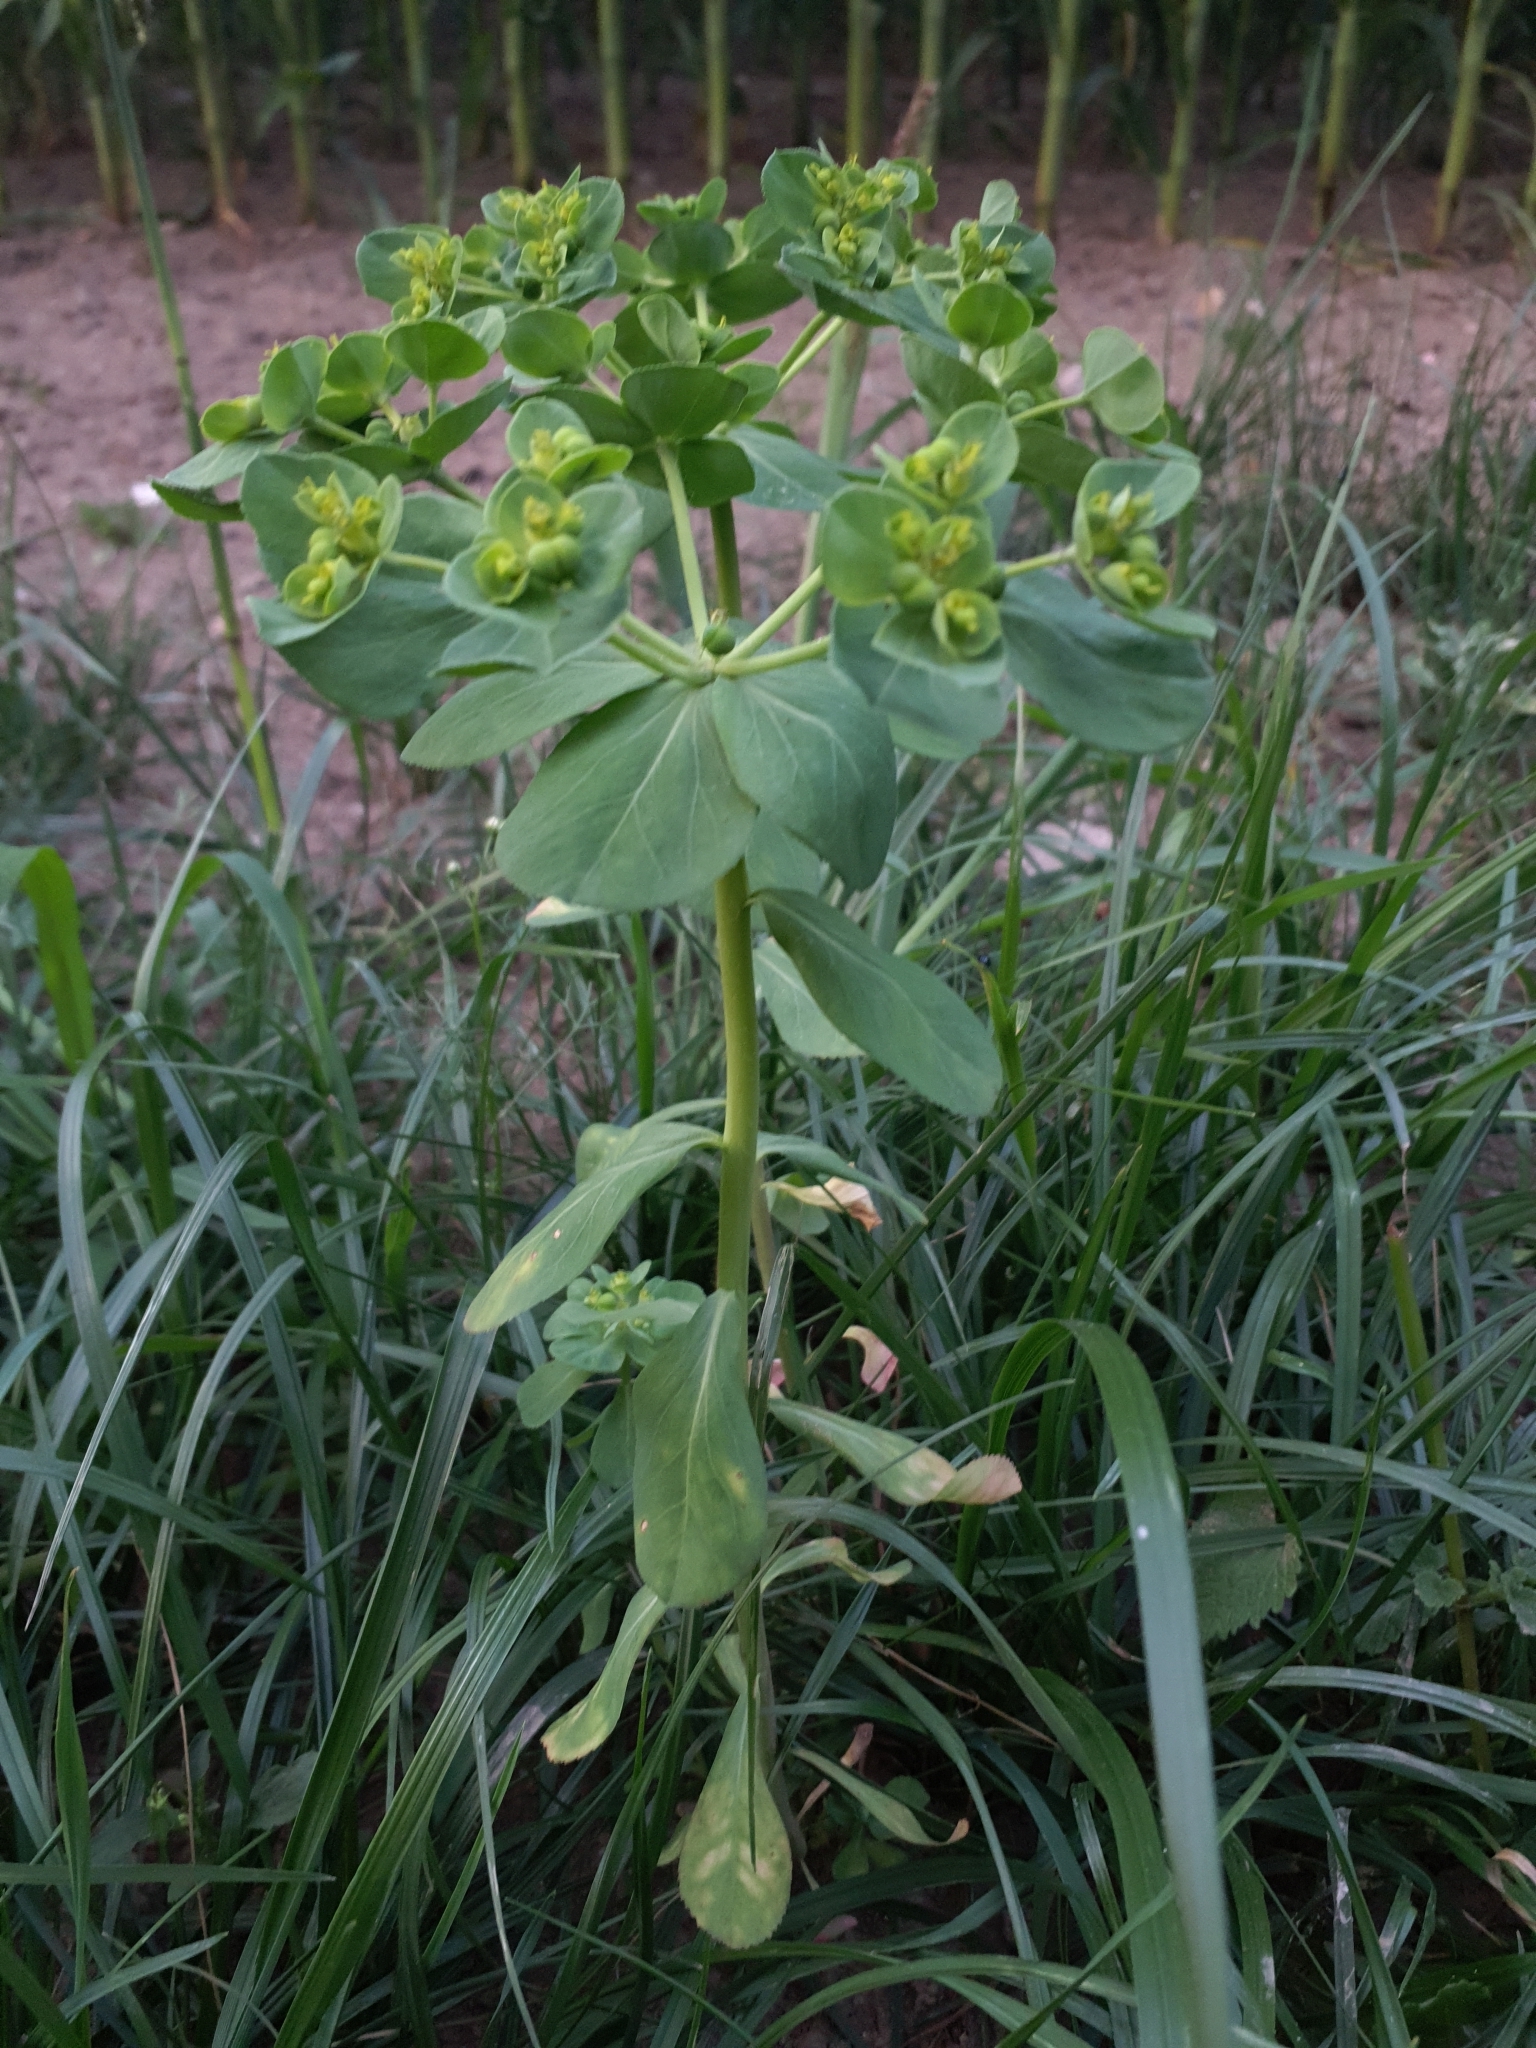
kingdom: Plantae
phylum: Tracheophyta
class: Magnoliopsida
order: Malpighiales
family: Euphorbiaceae
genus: Euphorbia
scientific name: Euphorbia helioscopia
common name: Sun spurge
